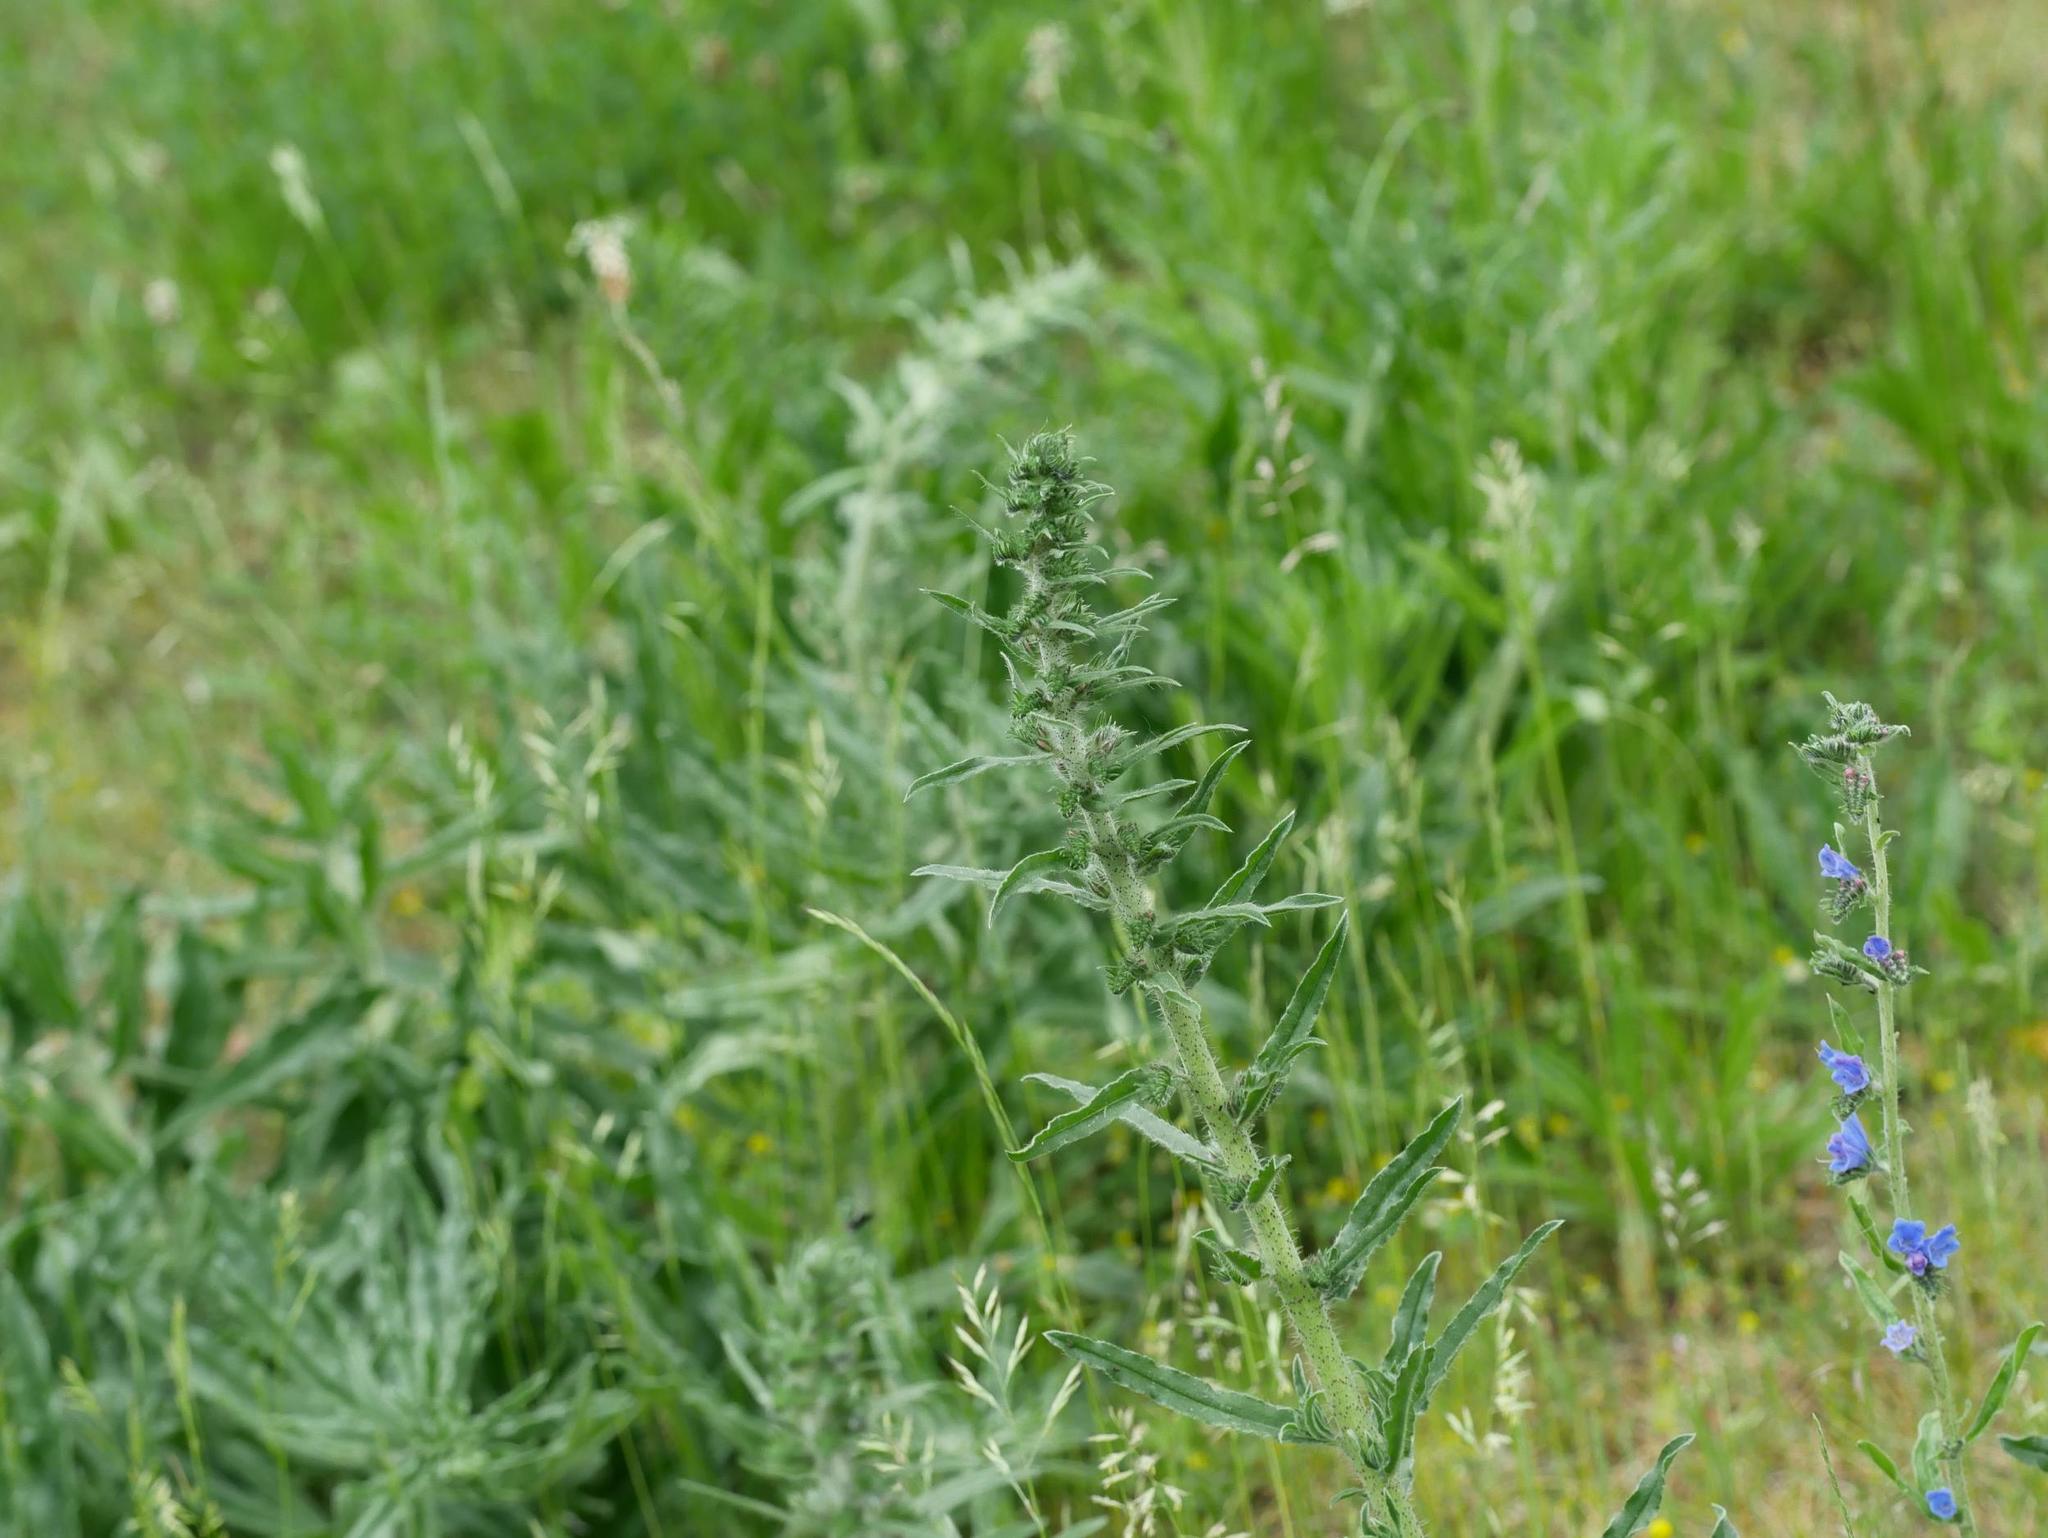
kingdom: Plantae
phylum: Tracheophyta
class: Magnoliopsida
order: Boraginales
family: Boraginaceae
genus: Echium
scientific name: Echium vulgare
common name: Common viper's bugloss
